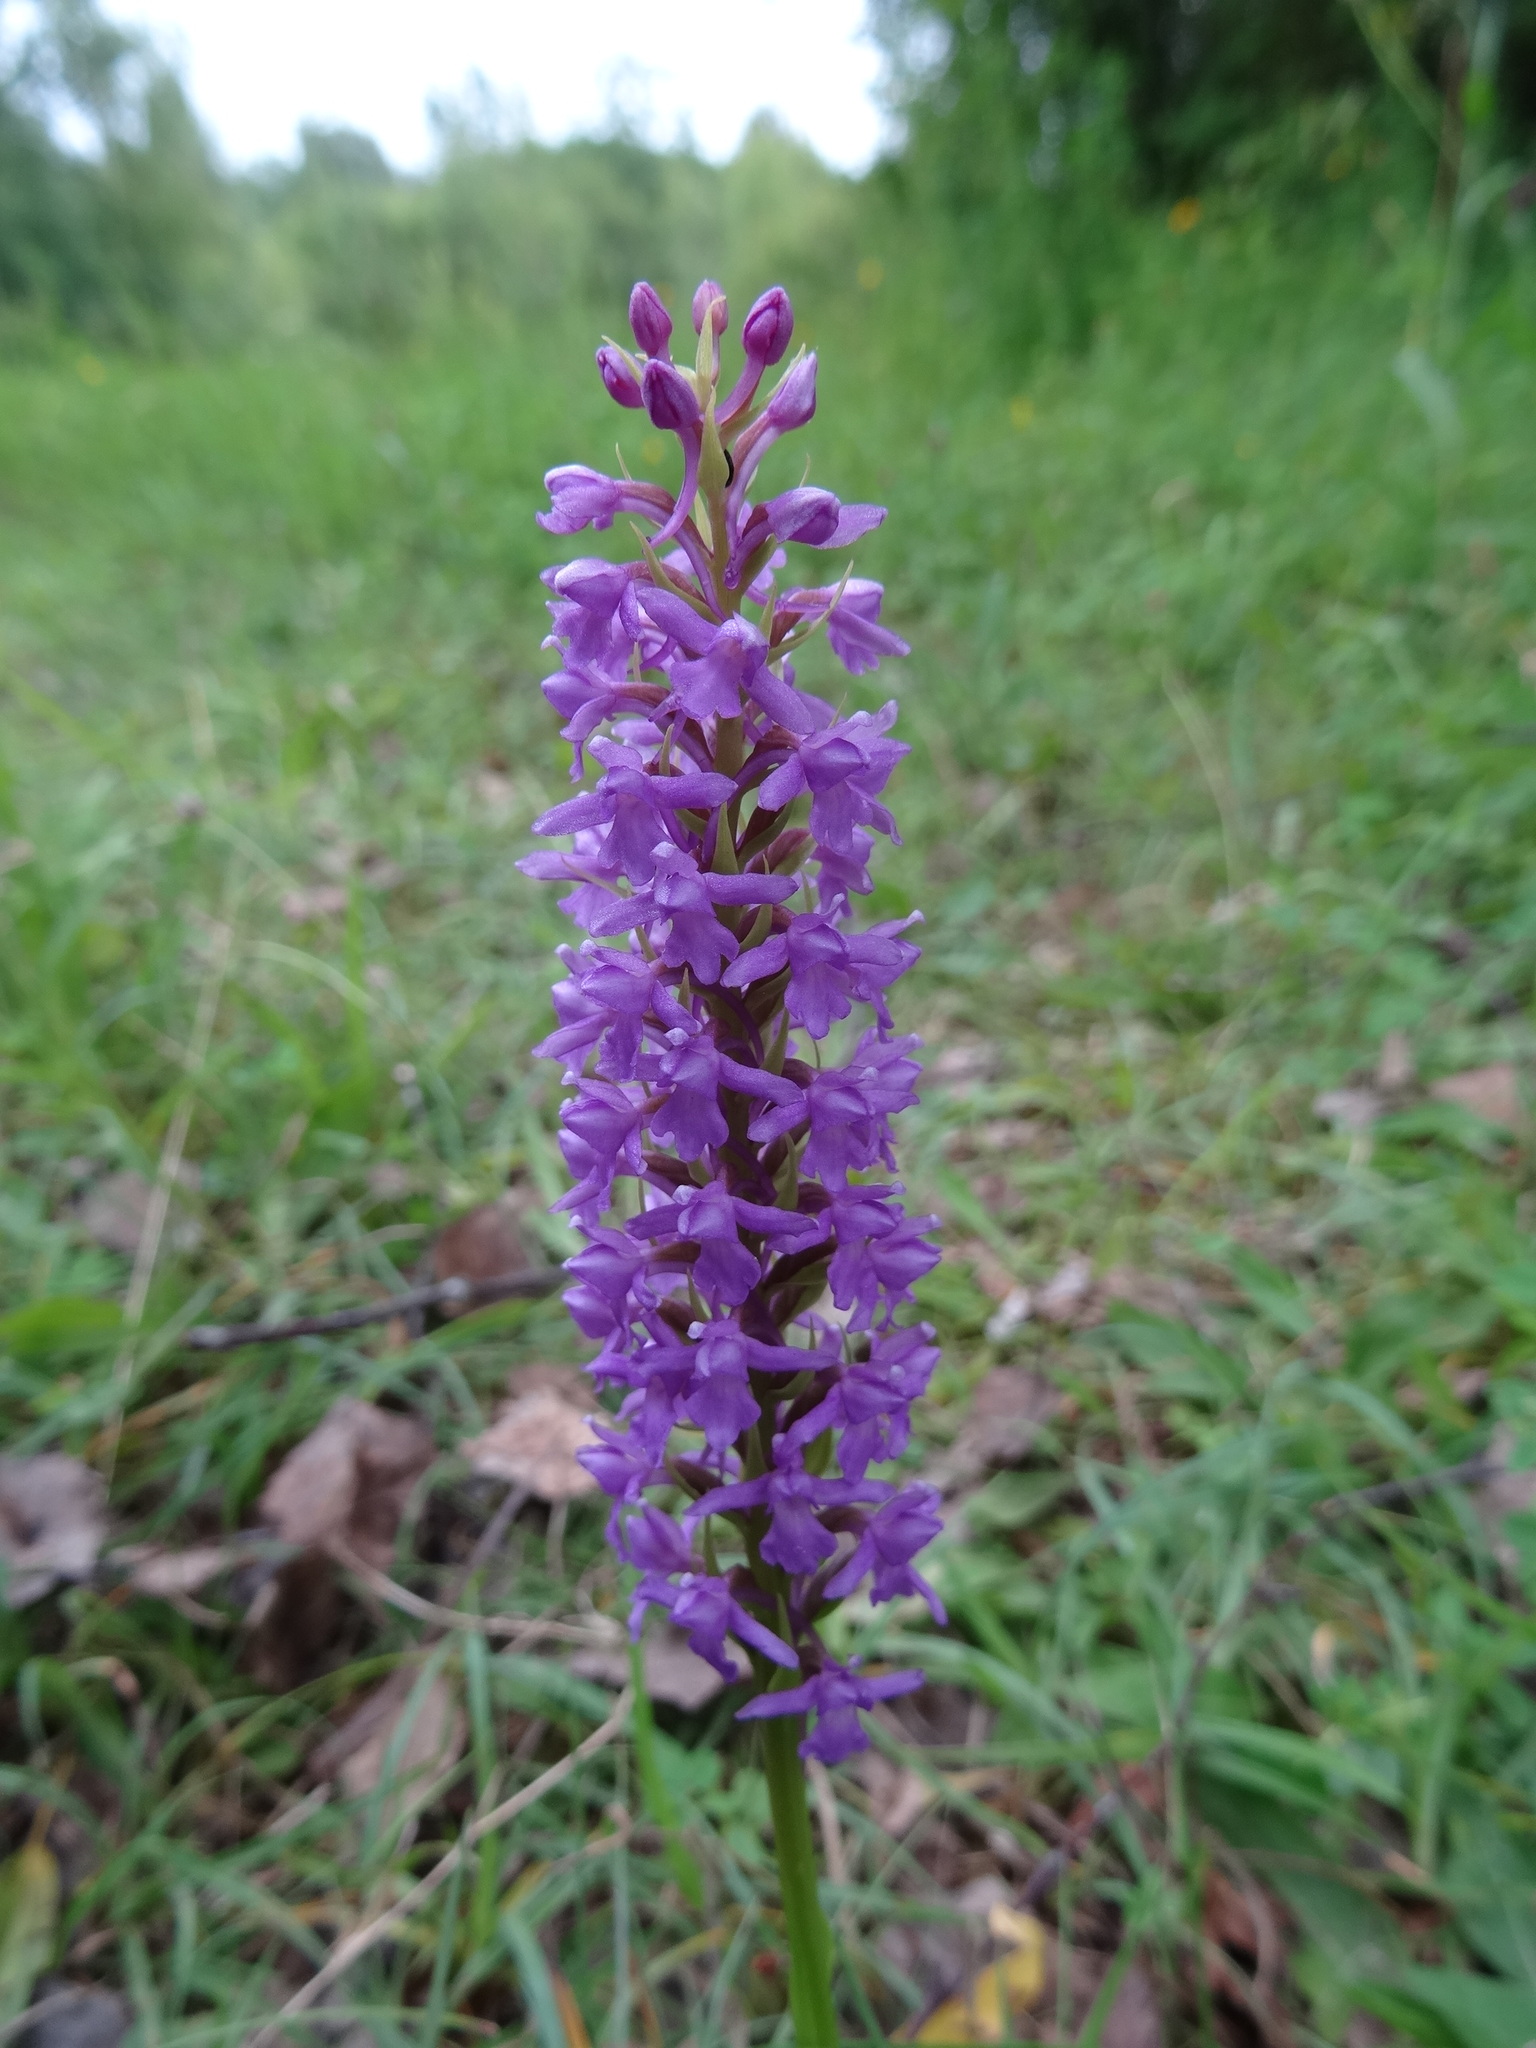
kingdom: Plantae
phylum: Tracheophyta
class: Liliopsida
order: Asparagales
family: Orchidaceae
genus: Gymnadenia
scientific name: Gymnadenia conopsea
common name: Fragrant orchid
